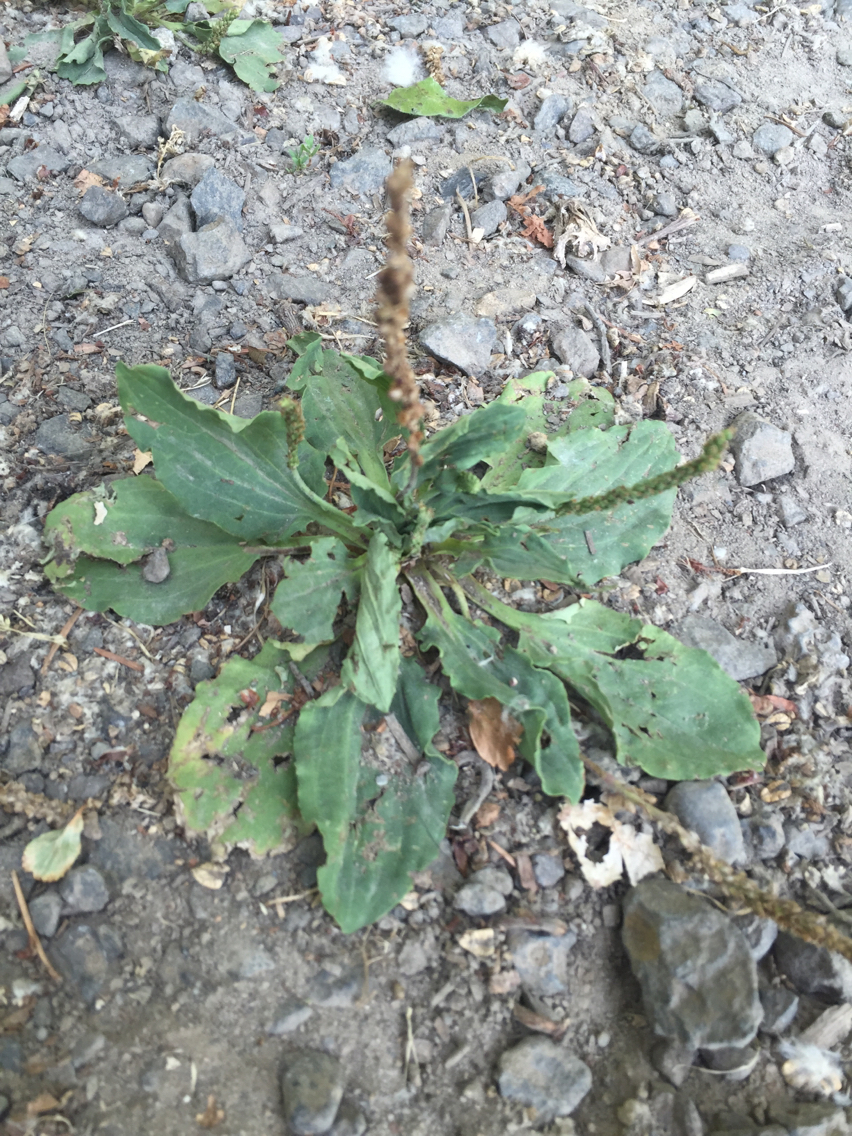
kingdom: Plantae
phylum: Tracheophyta
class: Magnoliopsida
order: Lamiales
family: Plantaginaceae
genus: Plantago
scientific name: Plantago major
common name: Common plantain
